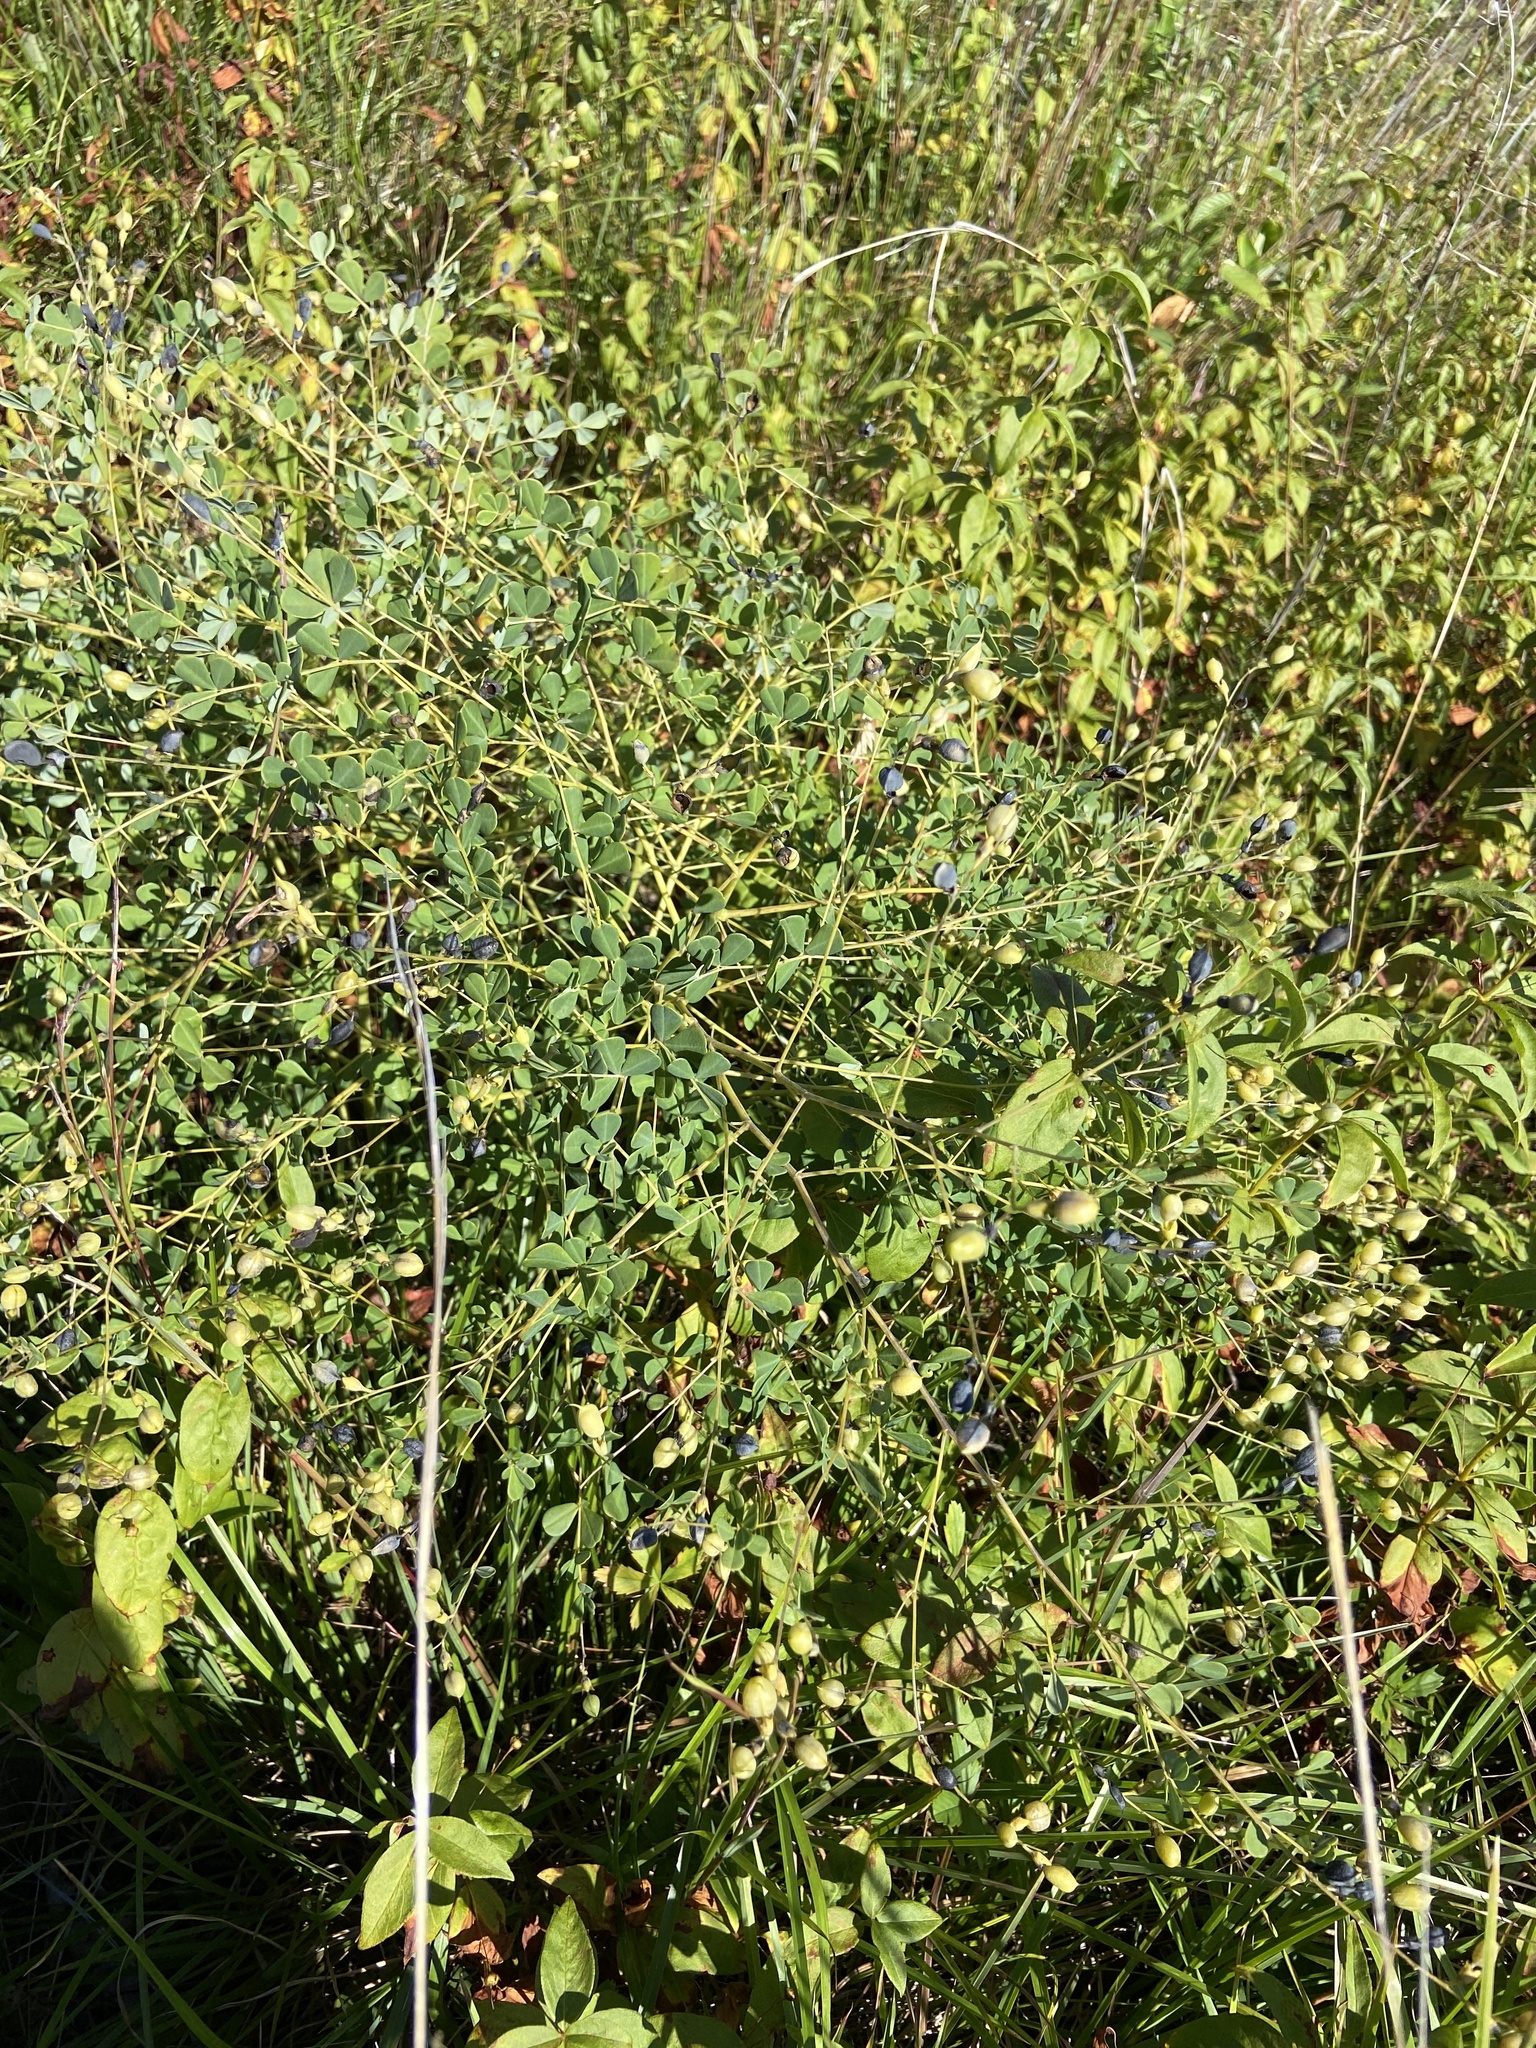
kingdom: Plantae
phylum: Tracheophyta
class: Magnoliopsida
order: Fabales
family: Fabaceae
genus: Baptisia
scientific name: Baptisia tinctoria
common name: Wild indigo
